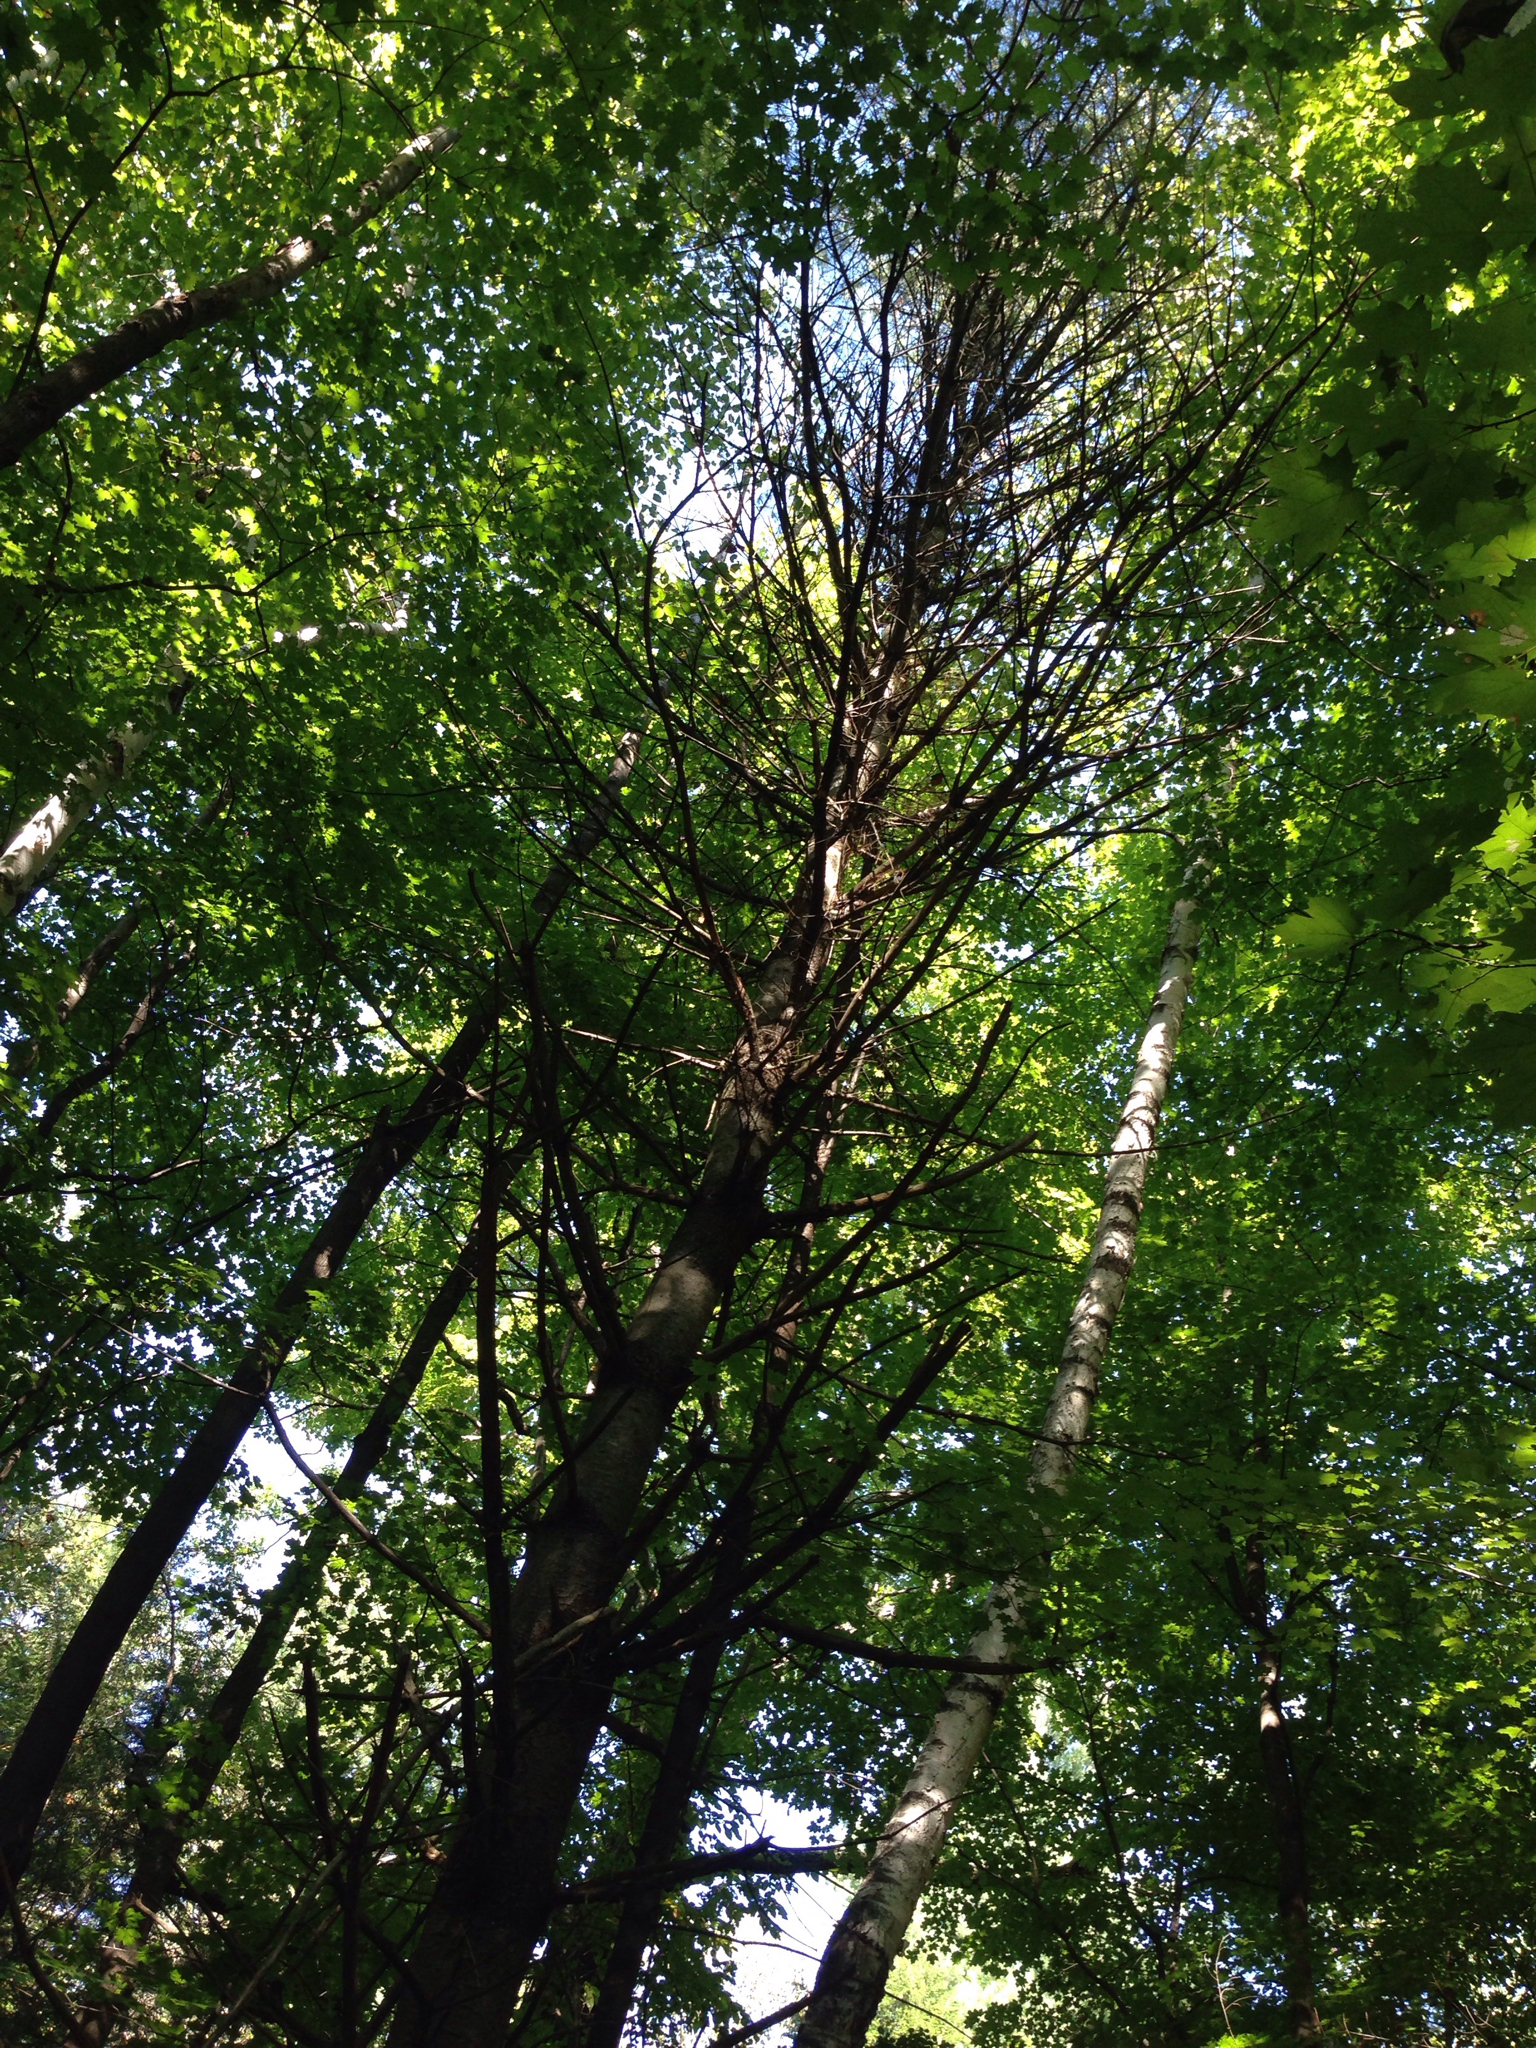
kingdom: Plantae
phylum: Tracheophyta
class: Pinopsida
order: Pinales
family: Pinaceae
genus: Pinus
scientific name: Pinus strobus
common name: Weymouth pine
